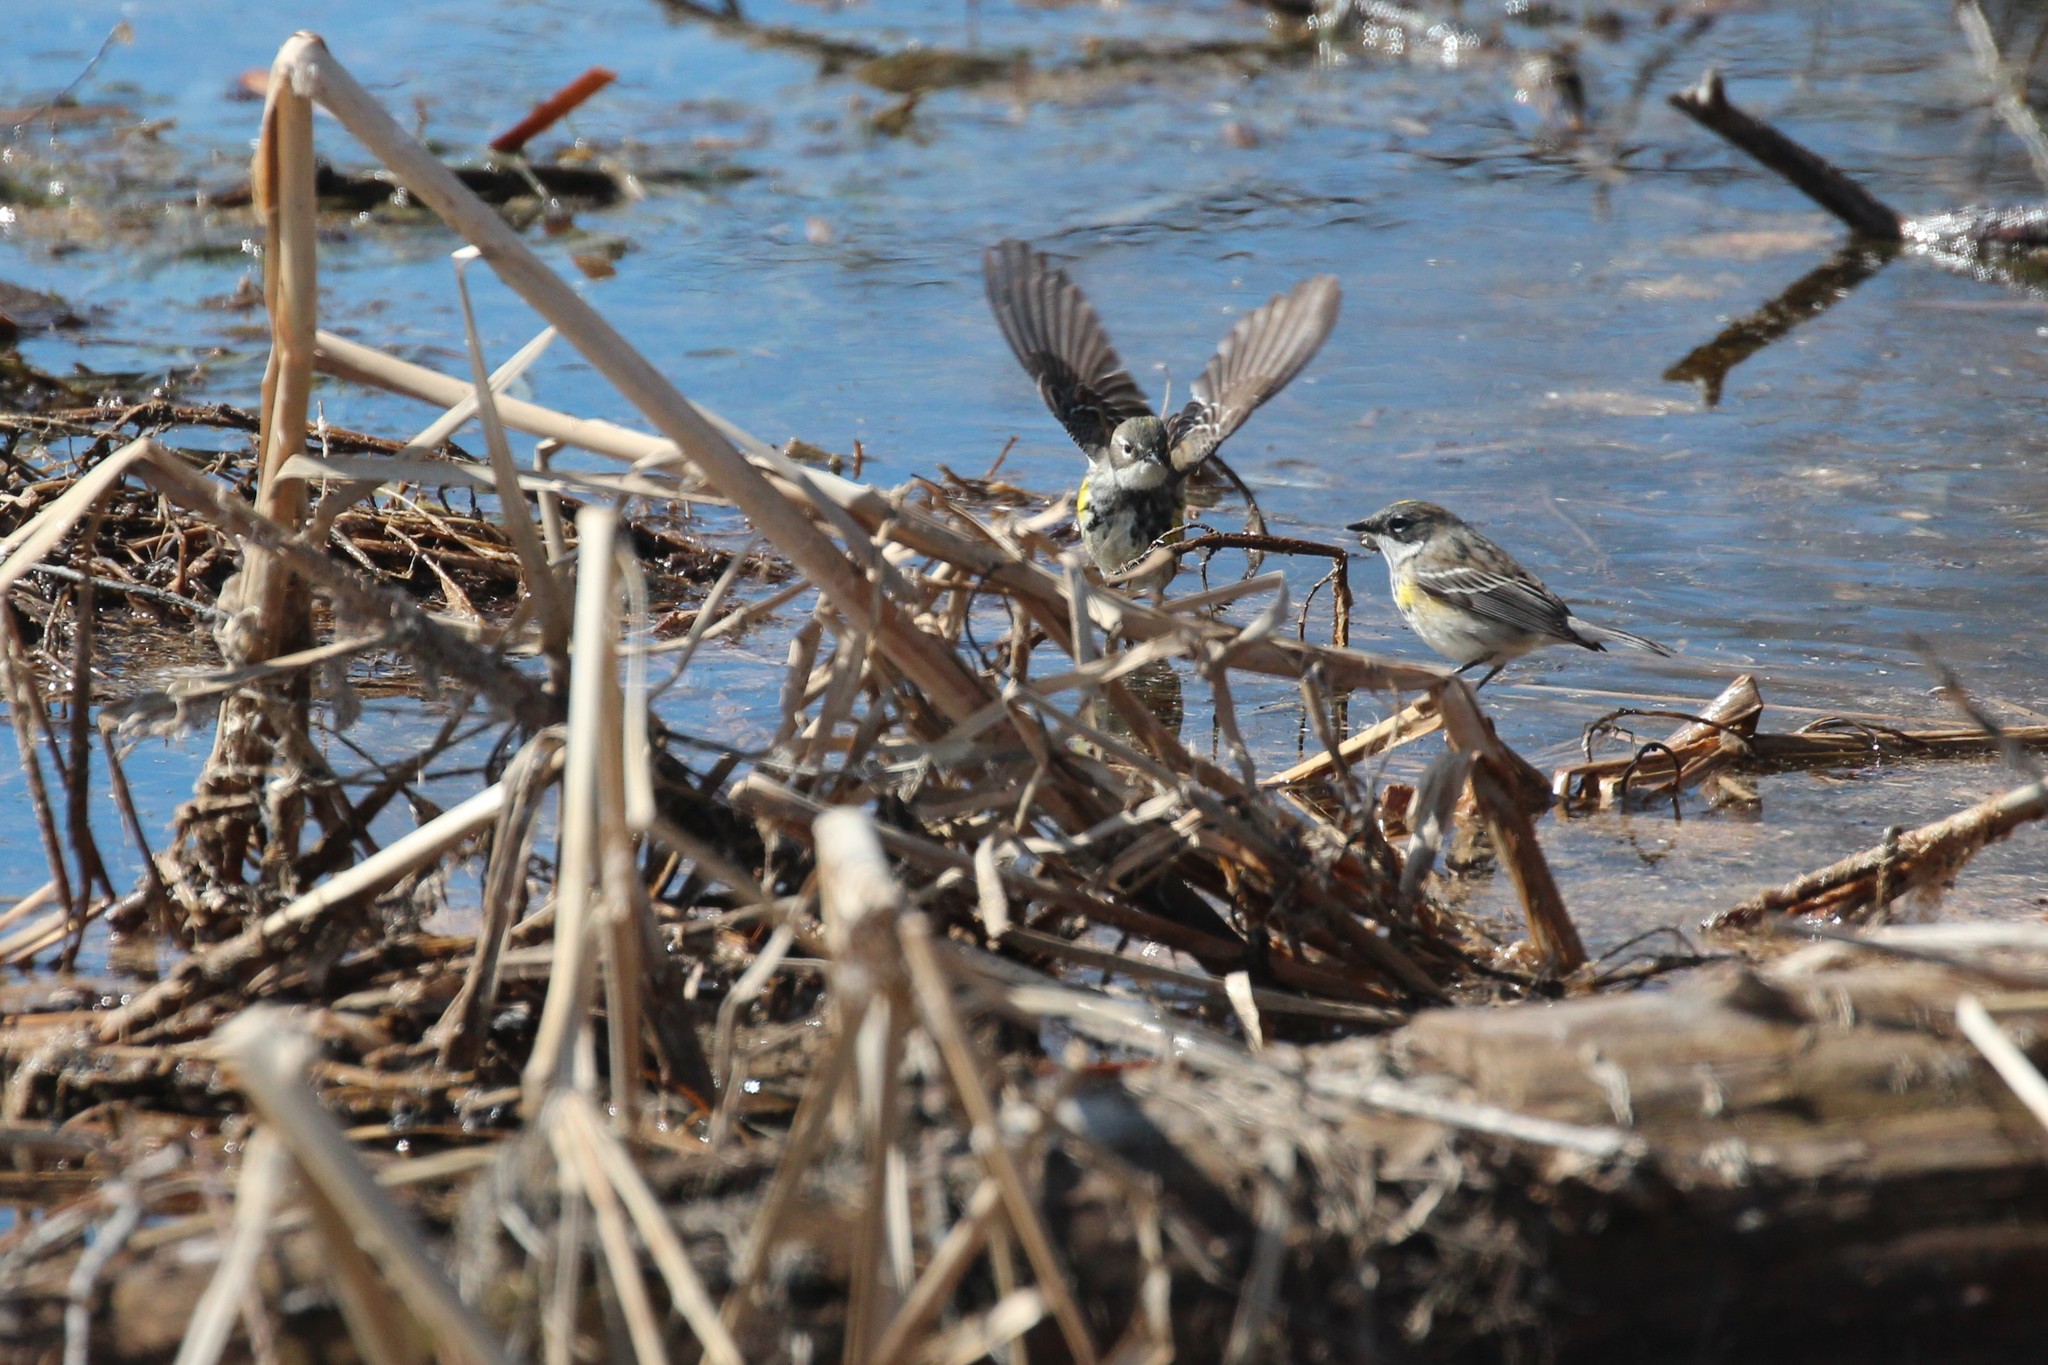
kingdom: Animalia
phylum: Chordata
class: Aves
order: Passeriformes
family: Parulidae
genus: Setophaga
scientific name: Setophaga coronata
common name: Myrtle warbler
